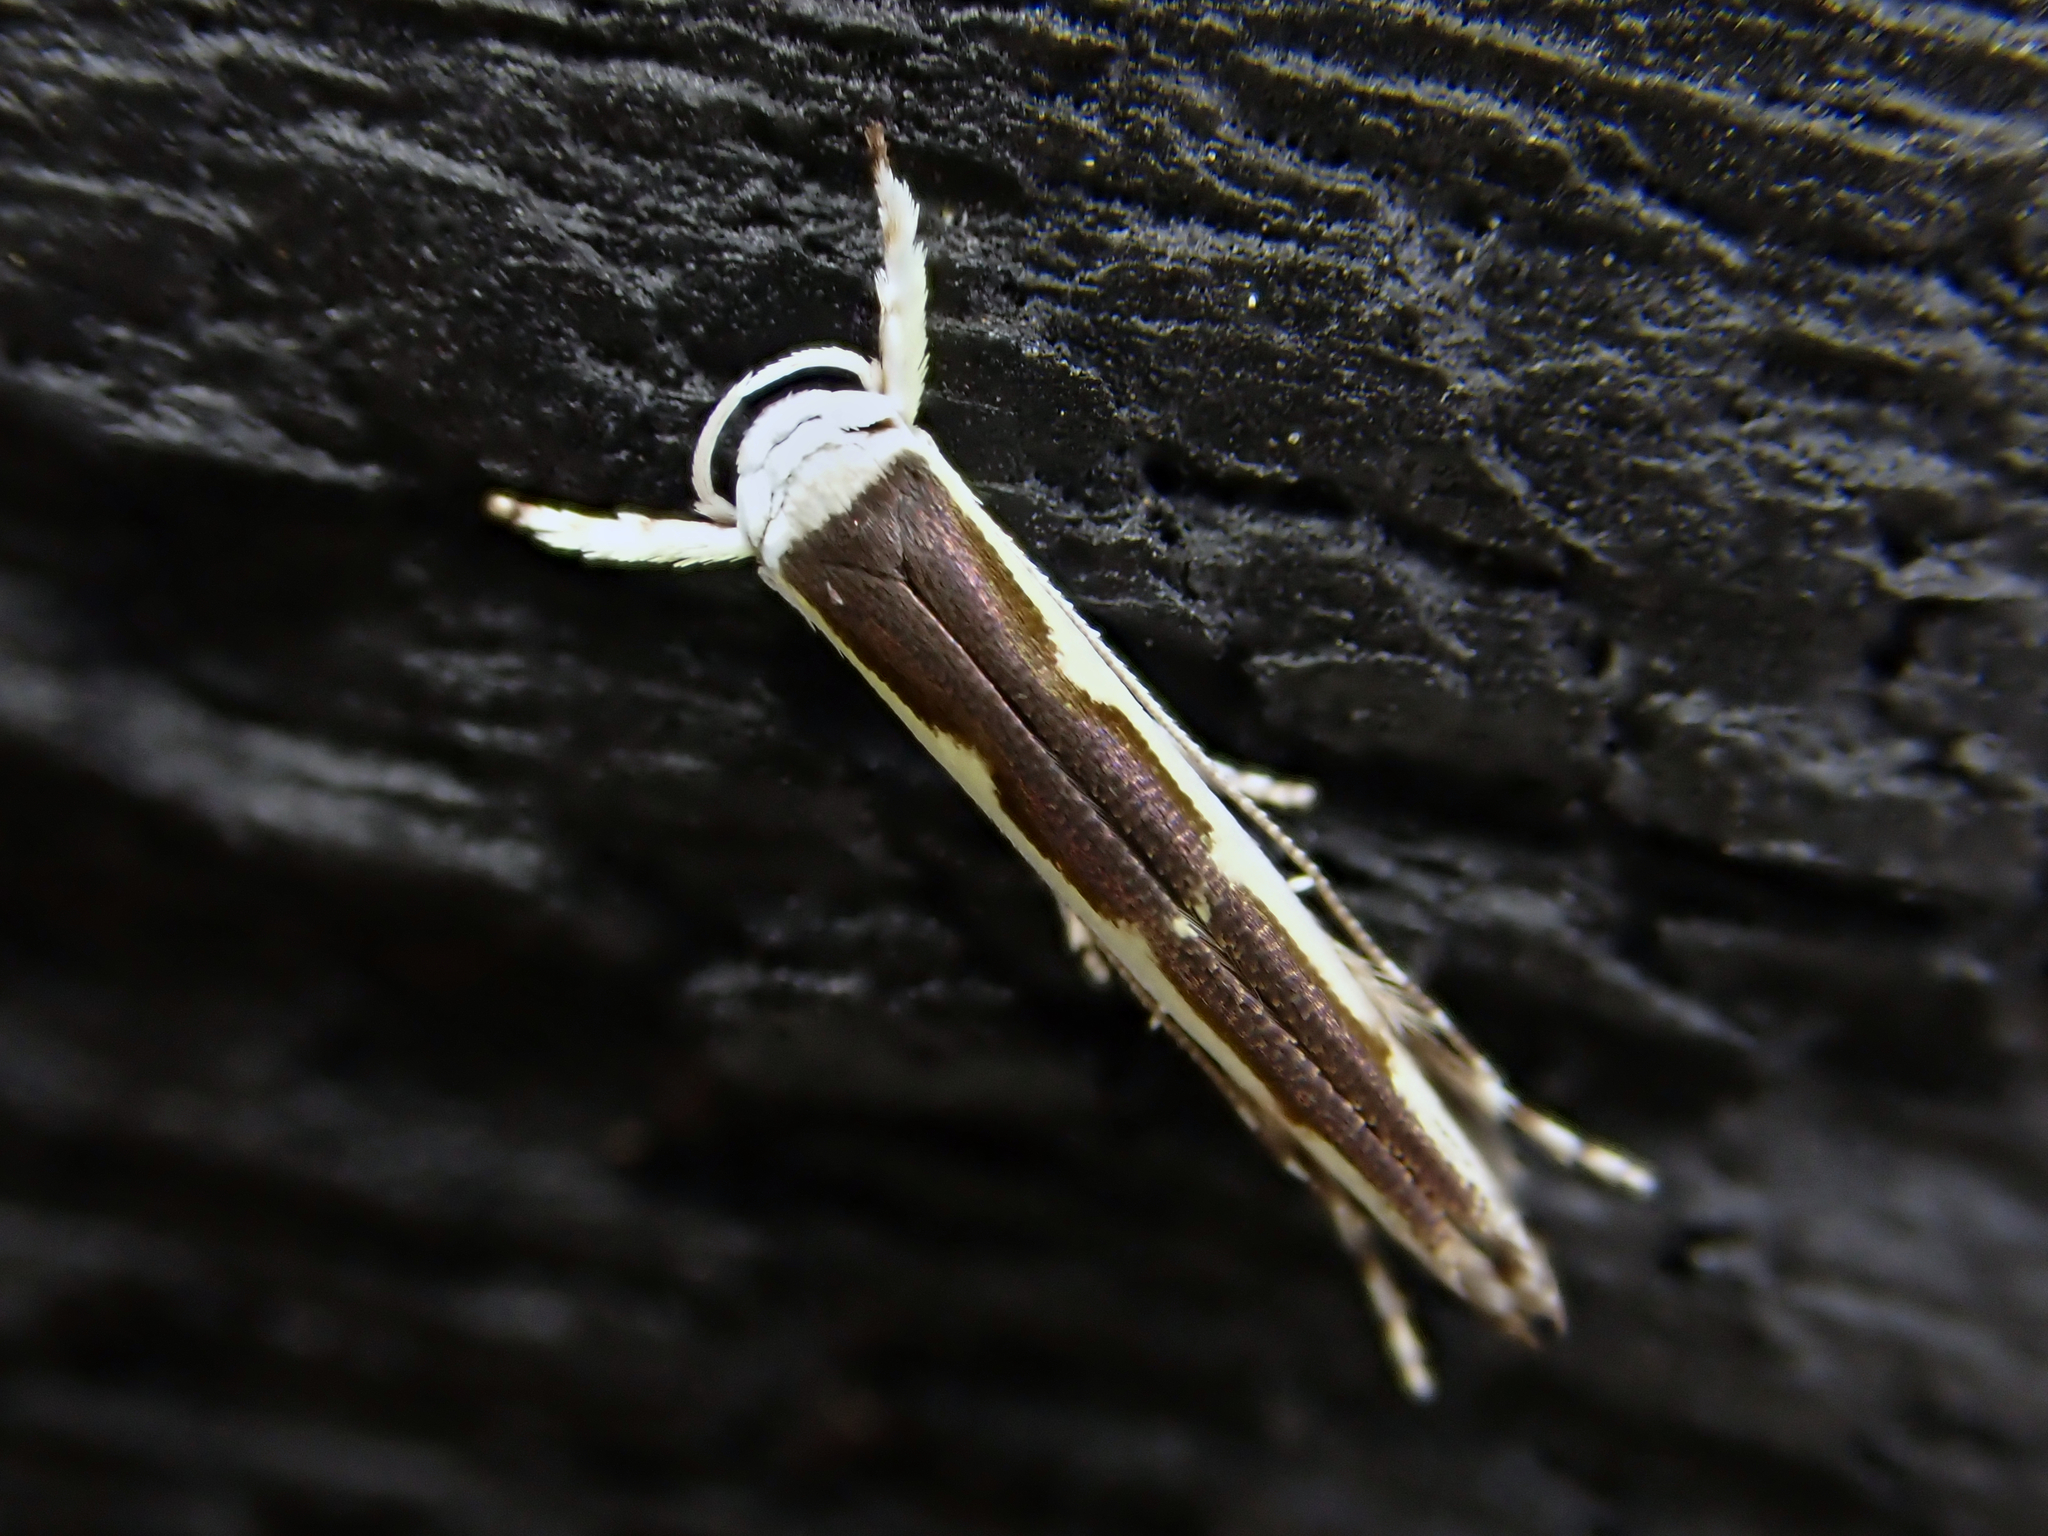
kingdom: Animalia
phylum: Arthropoda
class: Insecta
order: Lepidoptera
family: Roeslerstammiidae
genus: Vanicela
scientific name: Vanicela disjunctella
